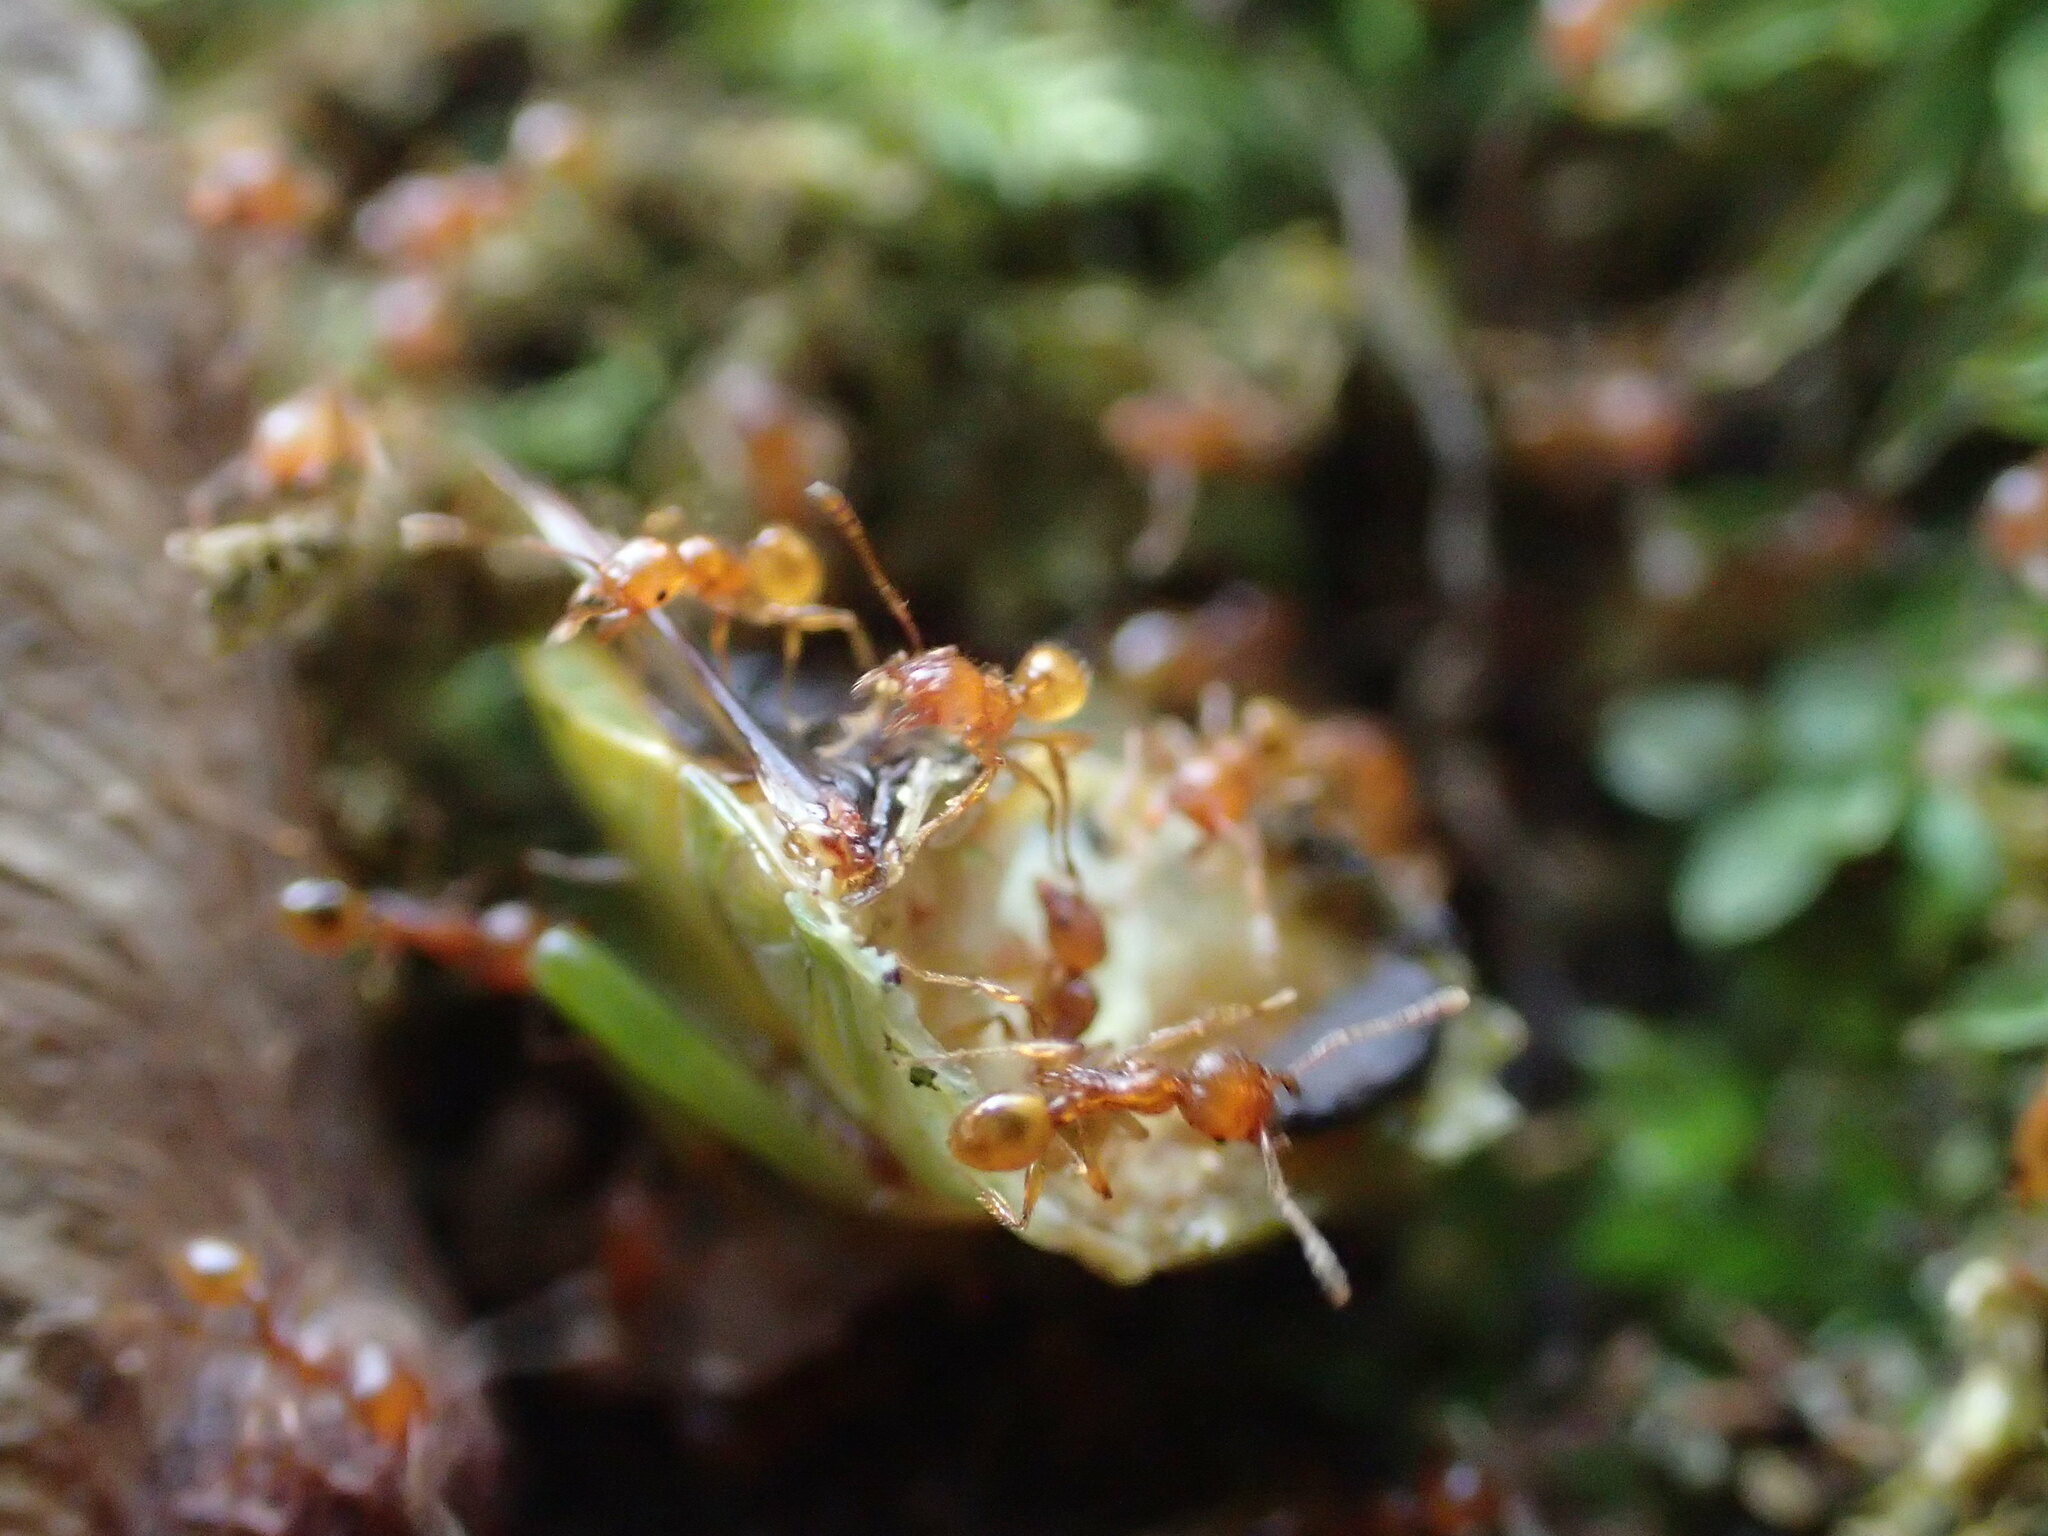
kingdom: Animalia
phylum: Arthropoda
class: Insecta
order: Hymenoptera
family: Formicidae
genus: Pheidole
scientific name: Pheidole fervida
